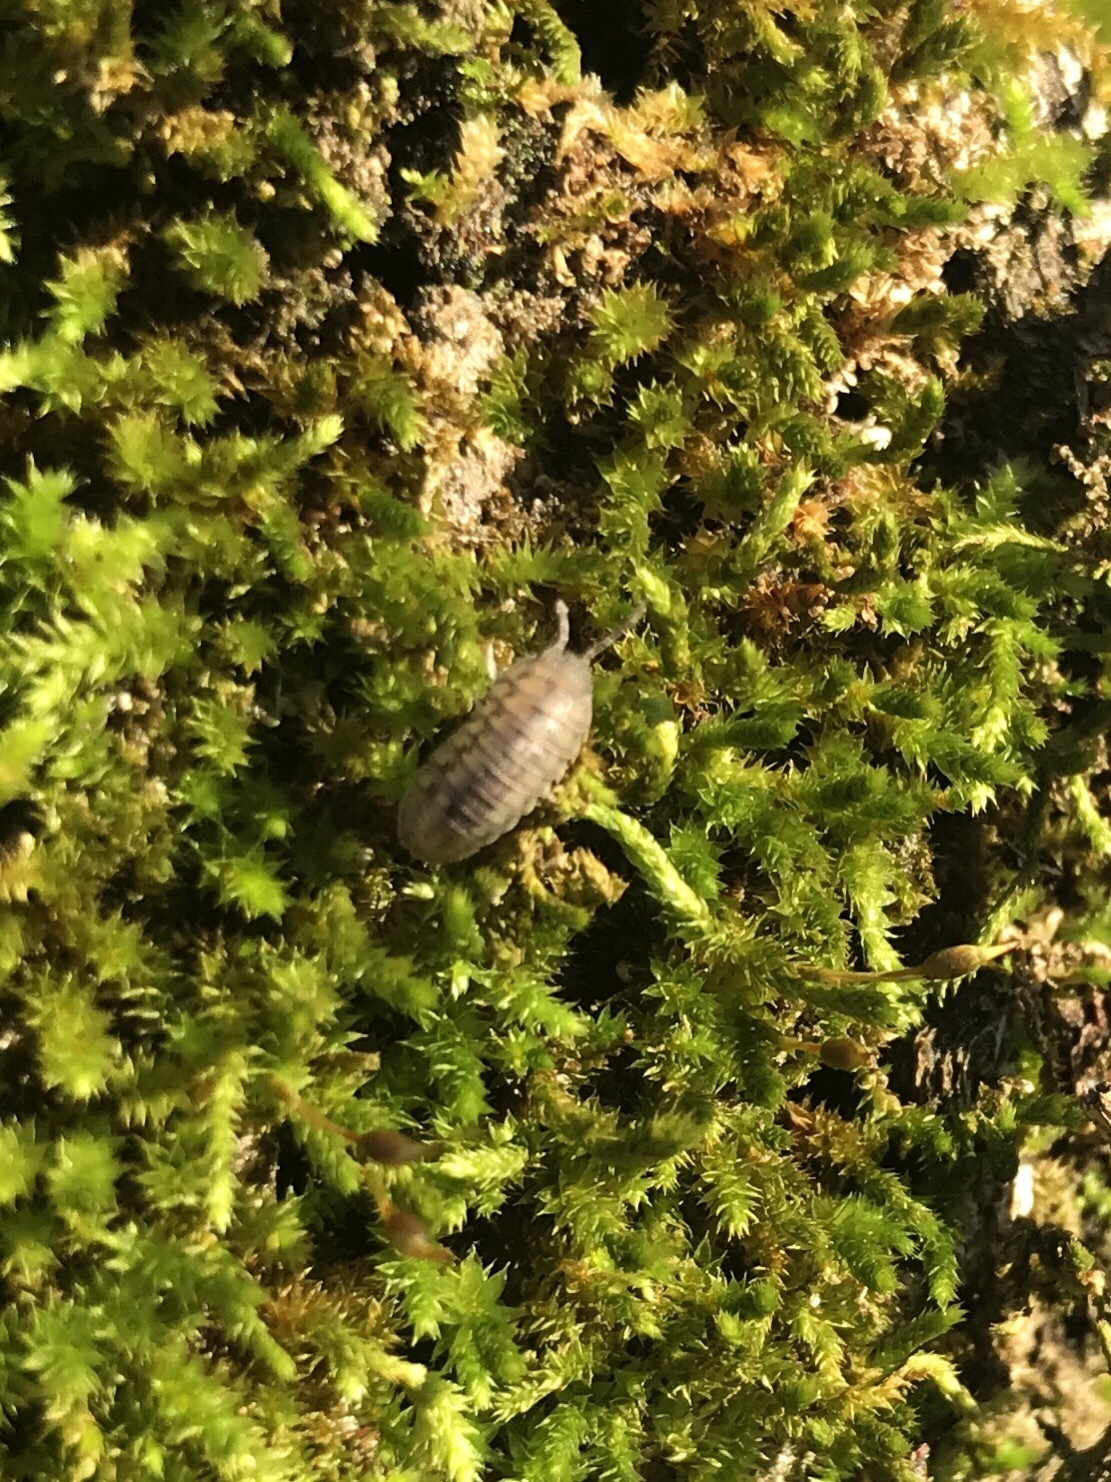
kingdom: Animalia
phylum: Arthropoda
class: Malacostraca
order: Isopoda
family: Armadillidiidae
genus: Armadillidium
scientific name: Armadillidium nasatum
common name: Isopod
